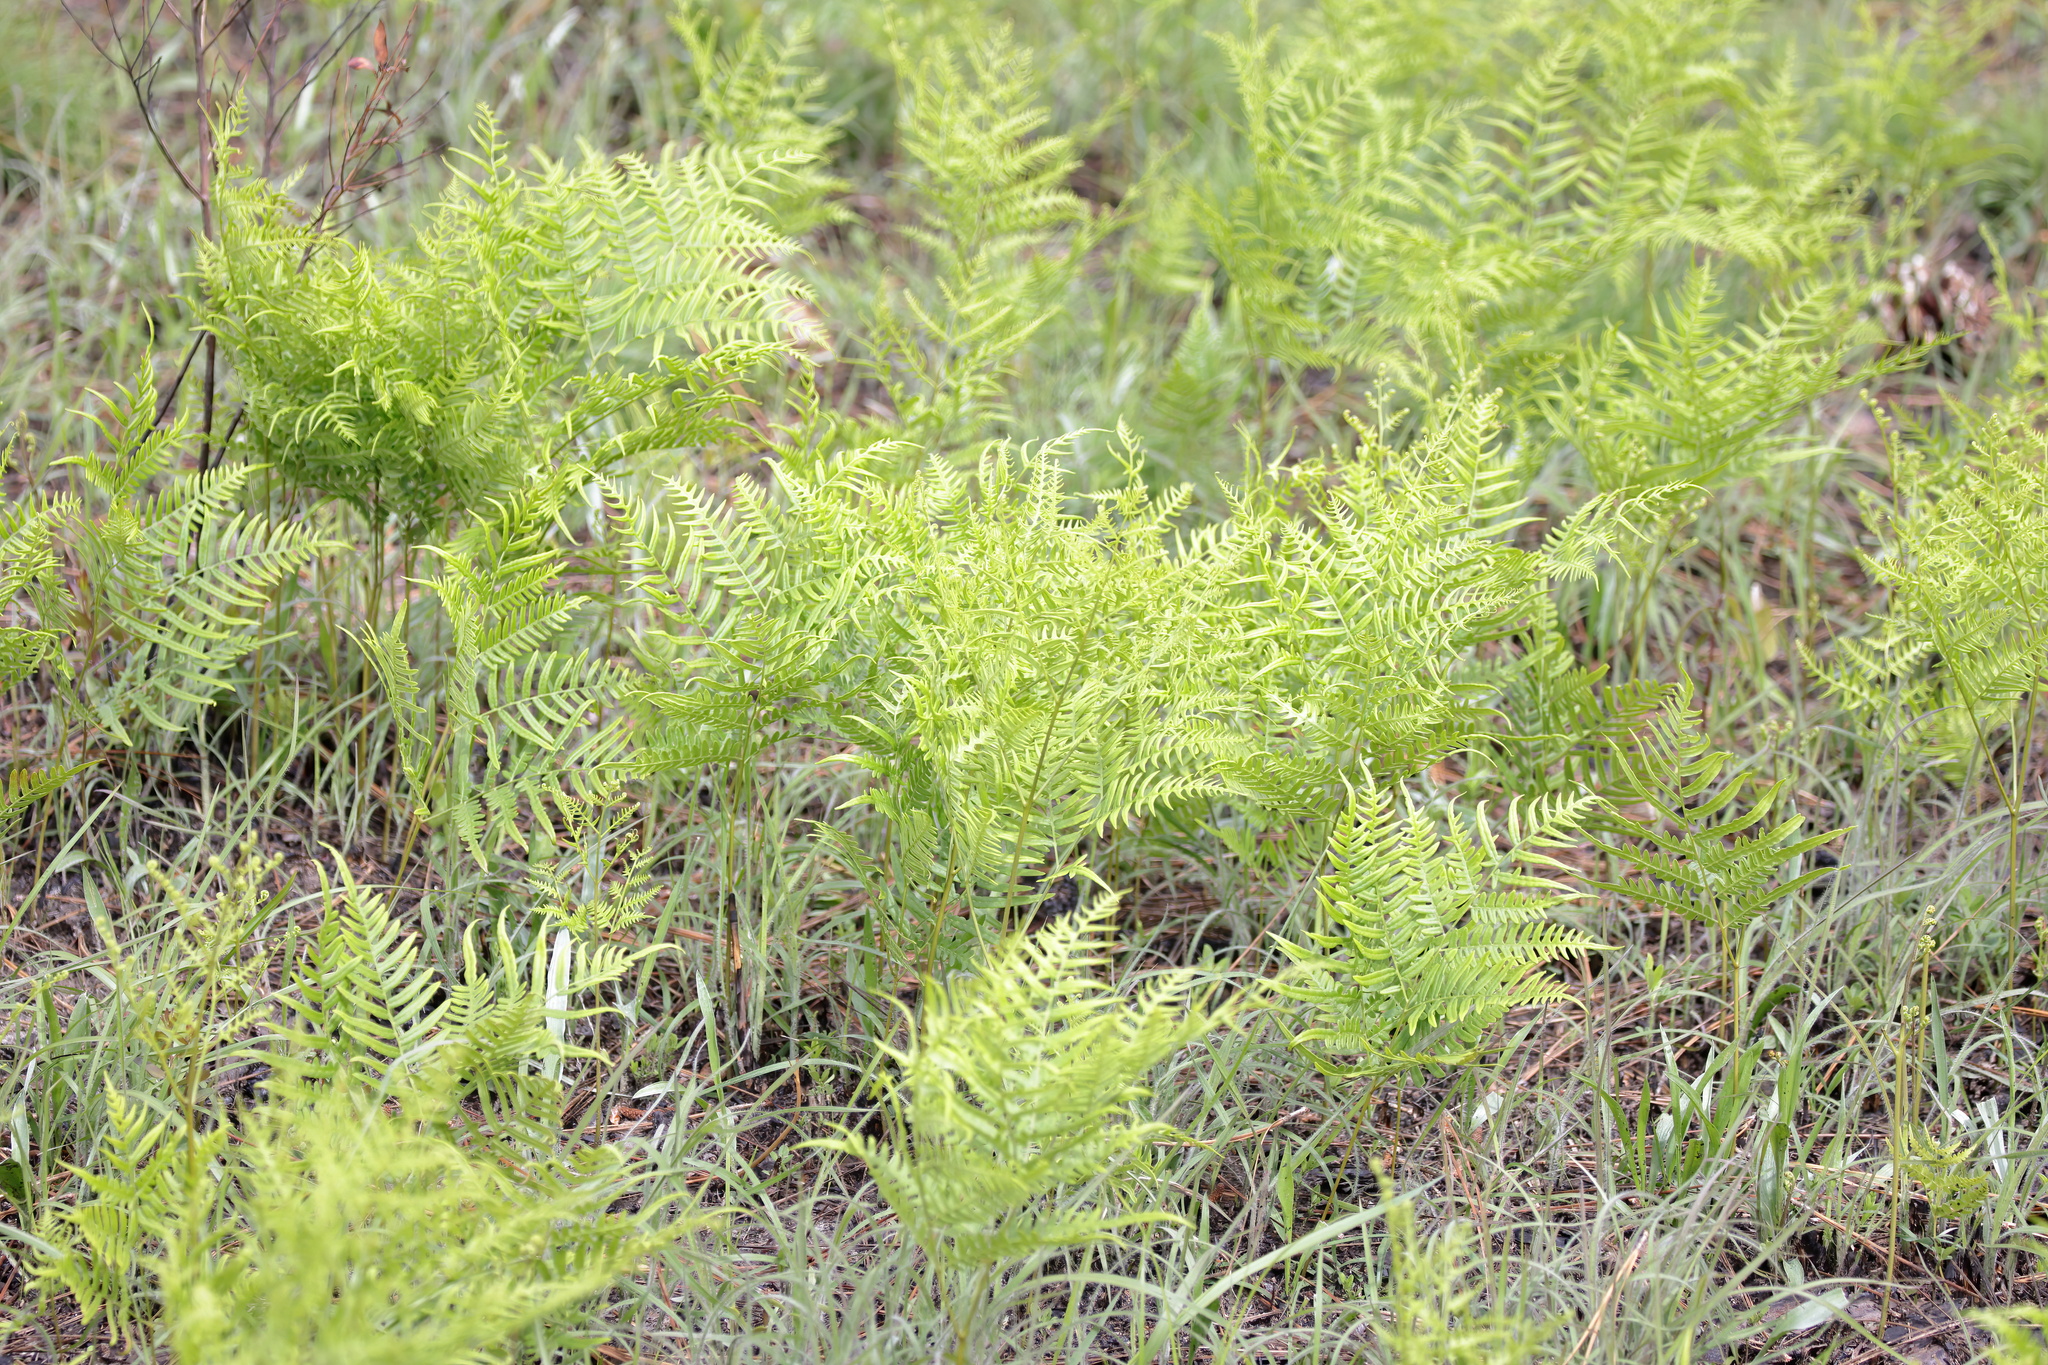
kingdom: Plantae
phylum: Tracheophyta
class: Polypodiopsida
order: Polypodiales
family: Dennstaedtiaceae
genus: Pteridium
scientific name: Pteridium
